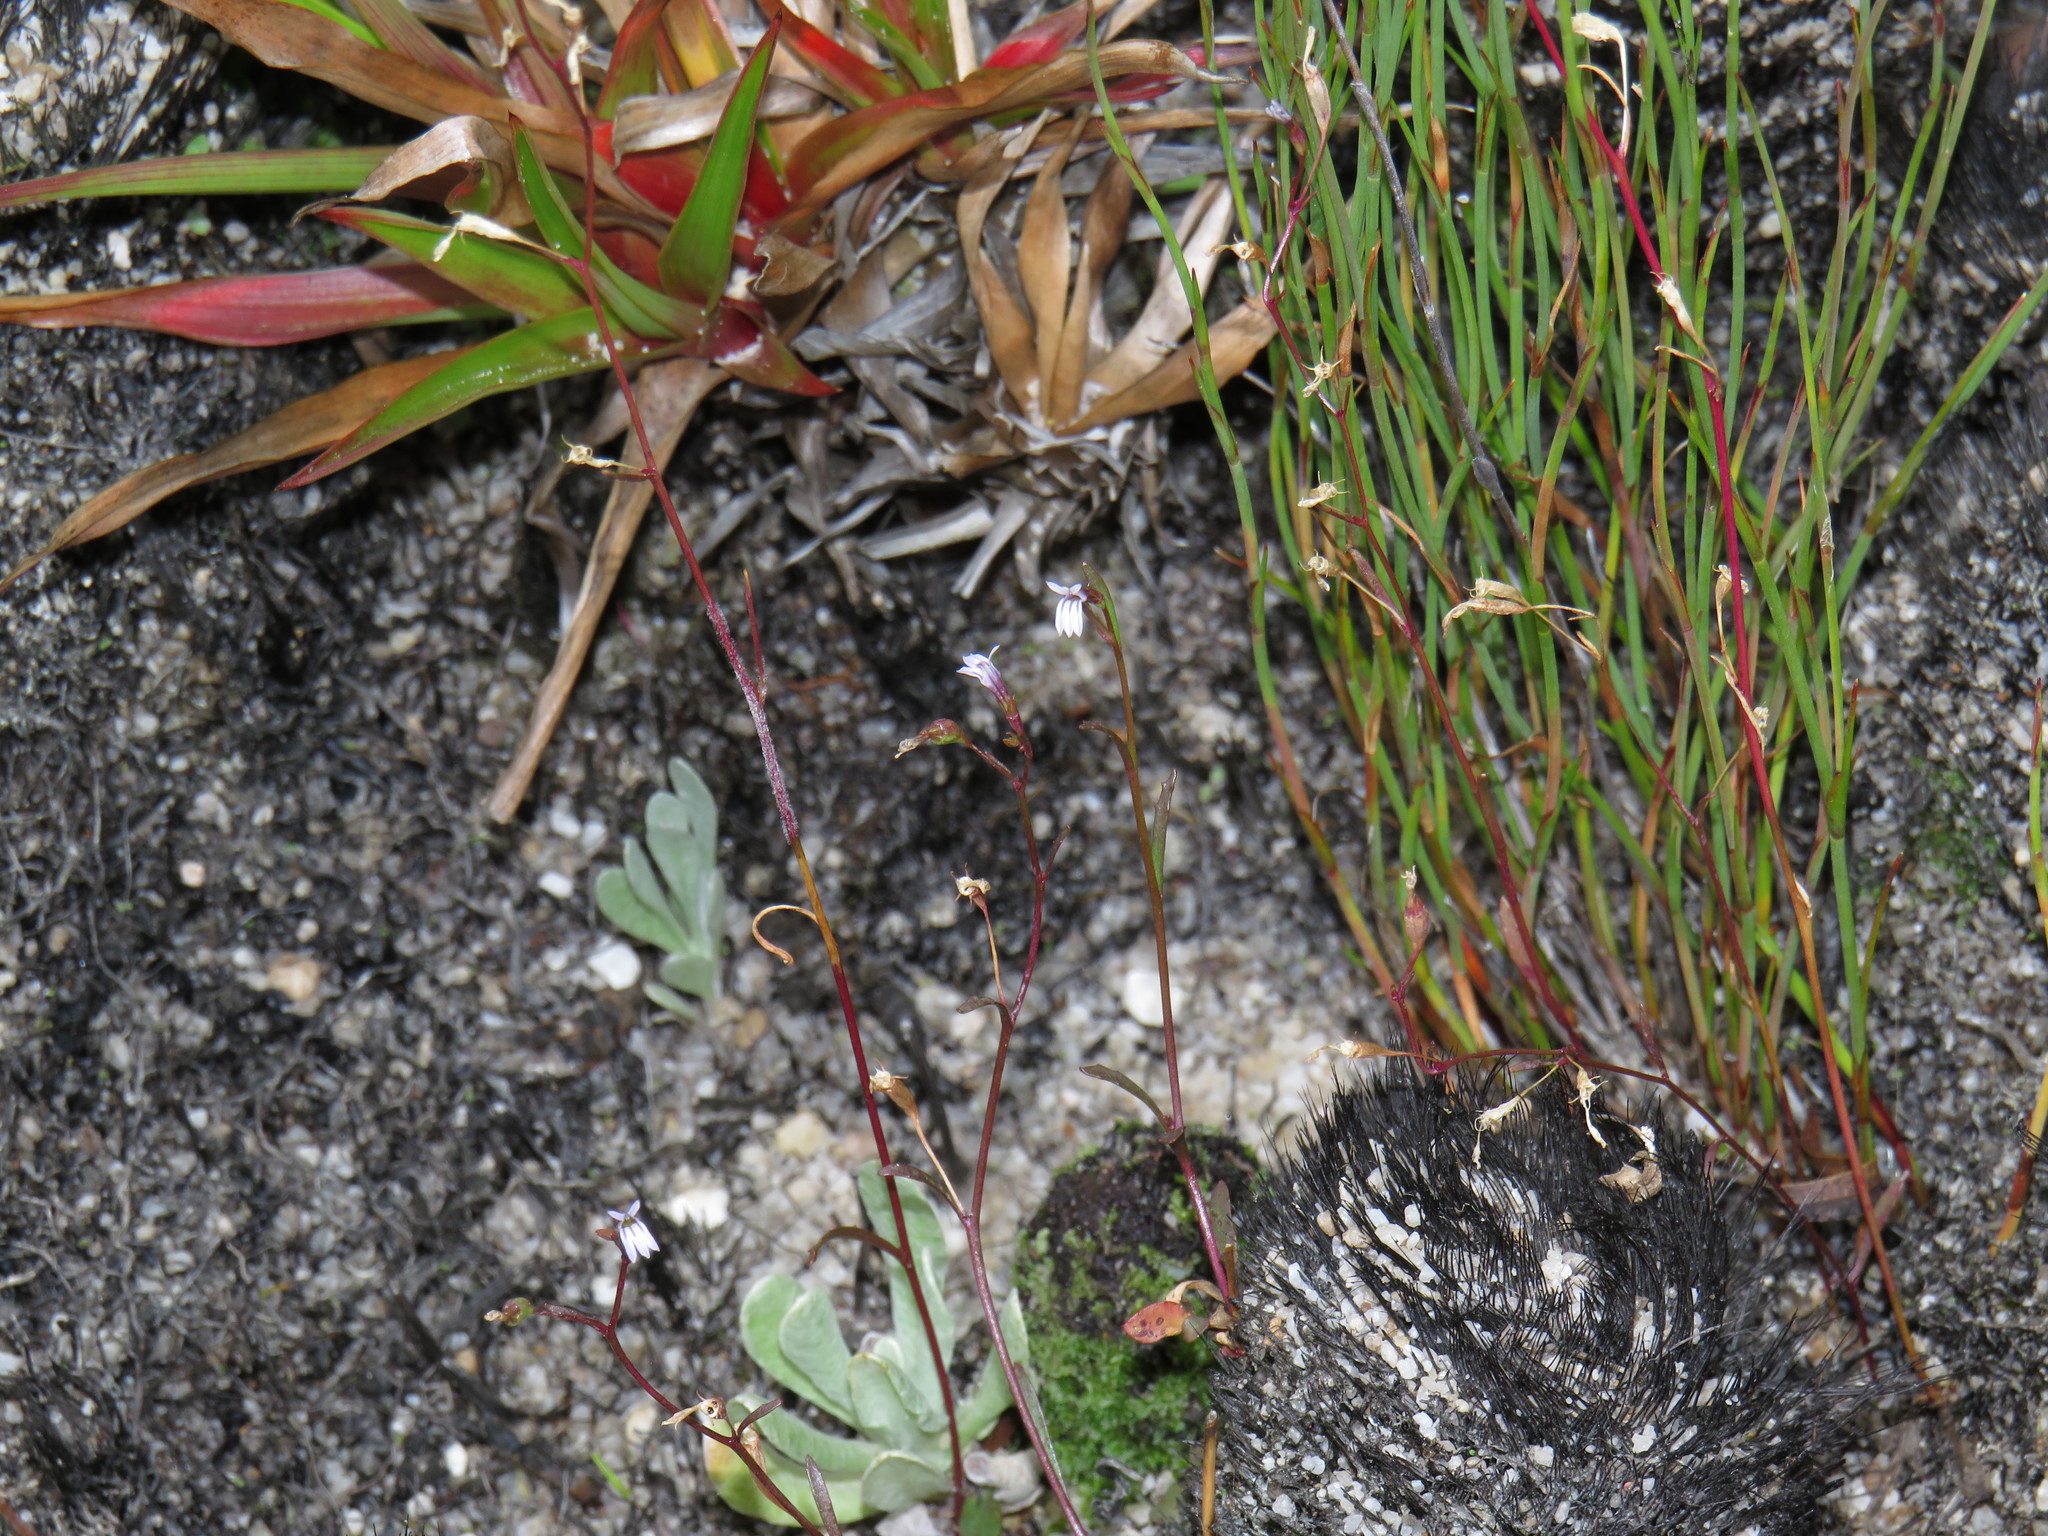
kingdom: Plantae
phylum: Tracheophyta
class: Magnoliopsida
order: Asterales
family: Campanulaceae
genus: Wimmerella
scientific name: Wimmerella arabidea
